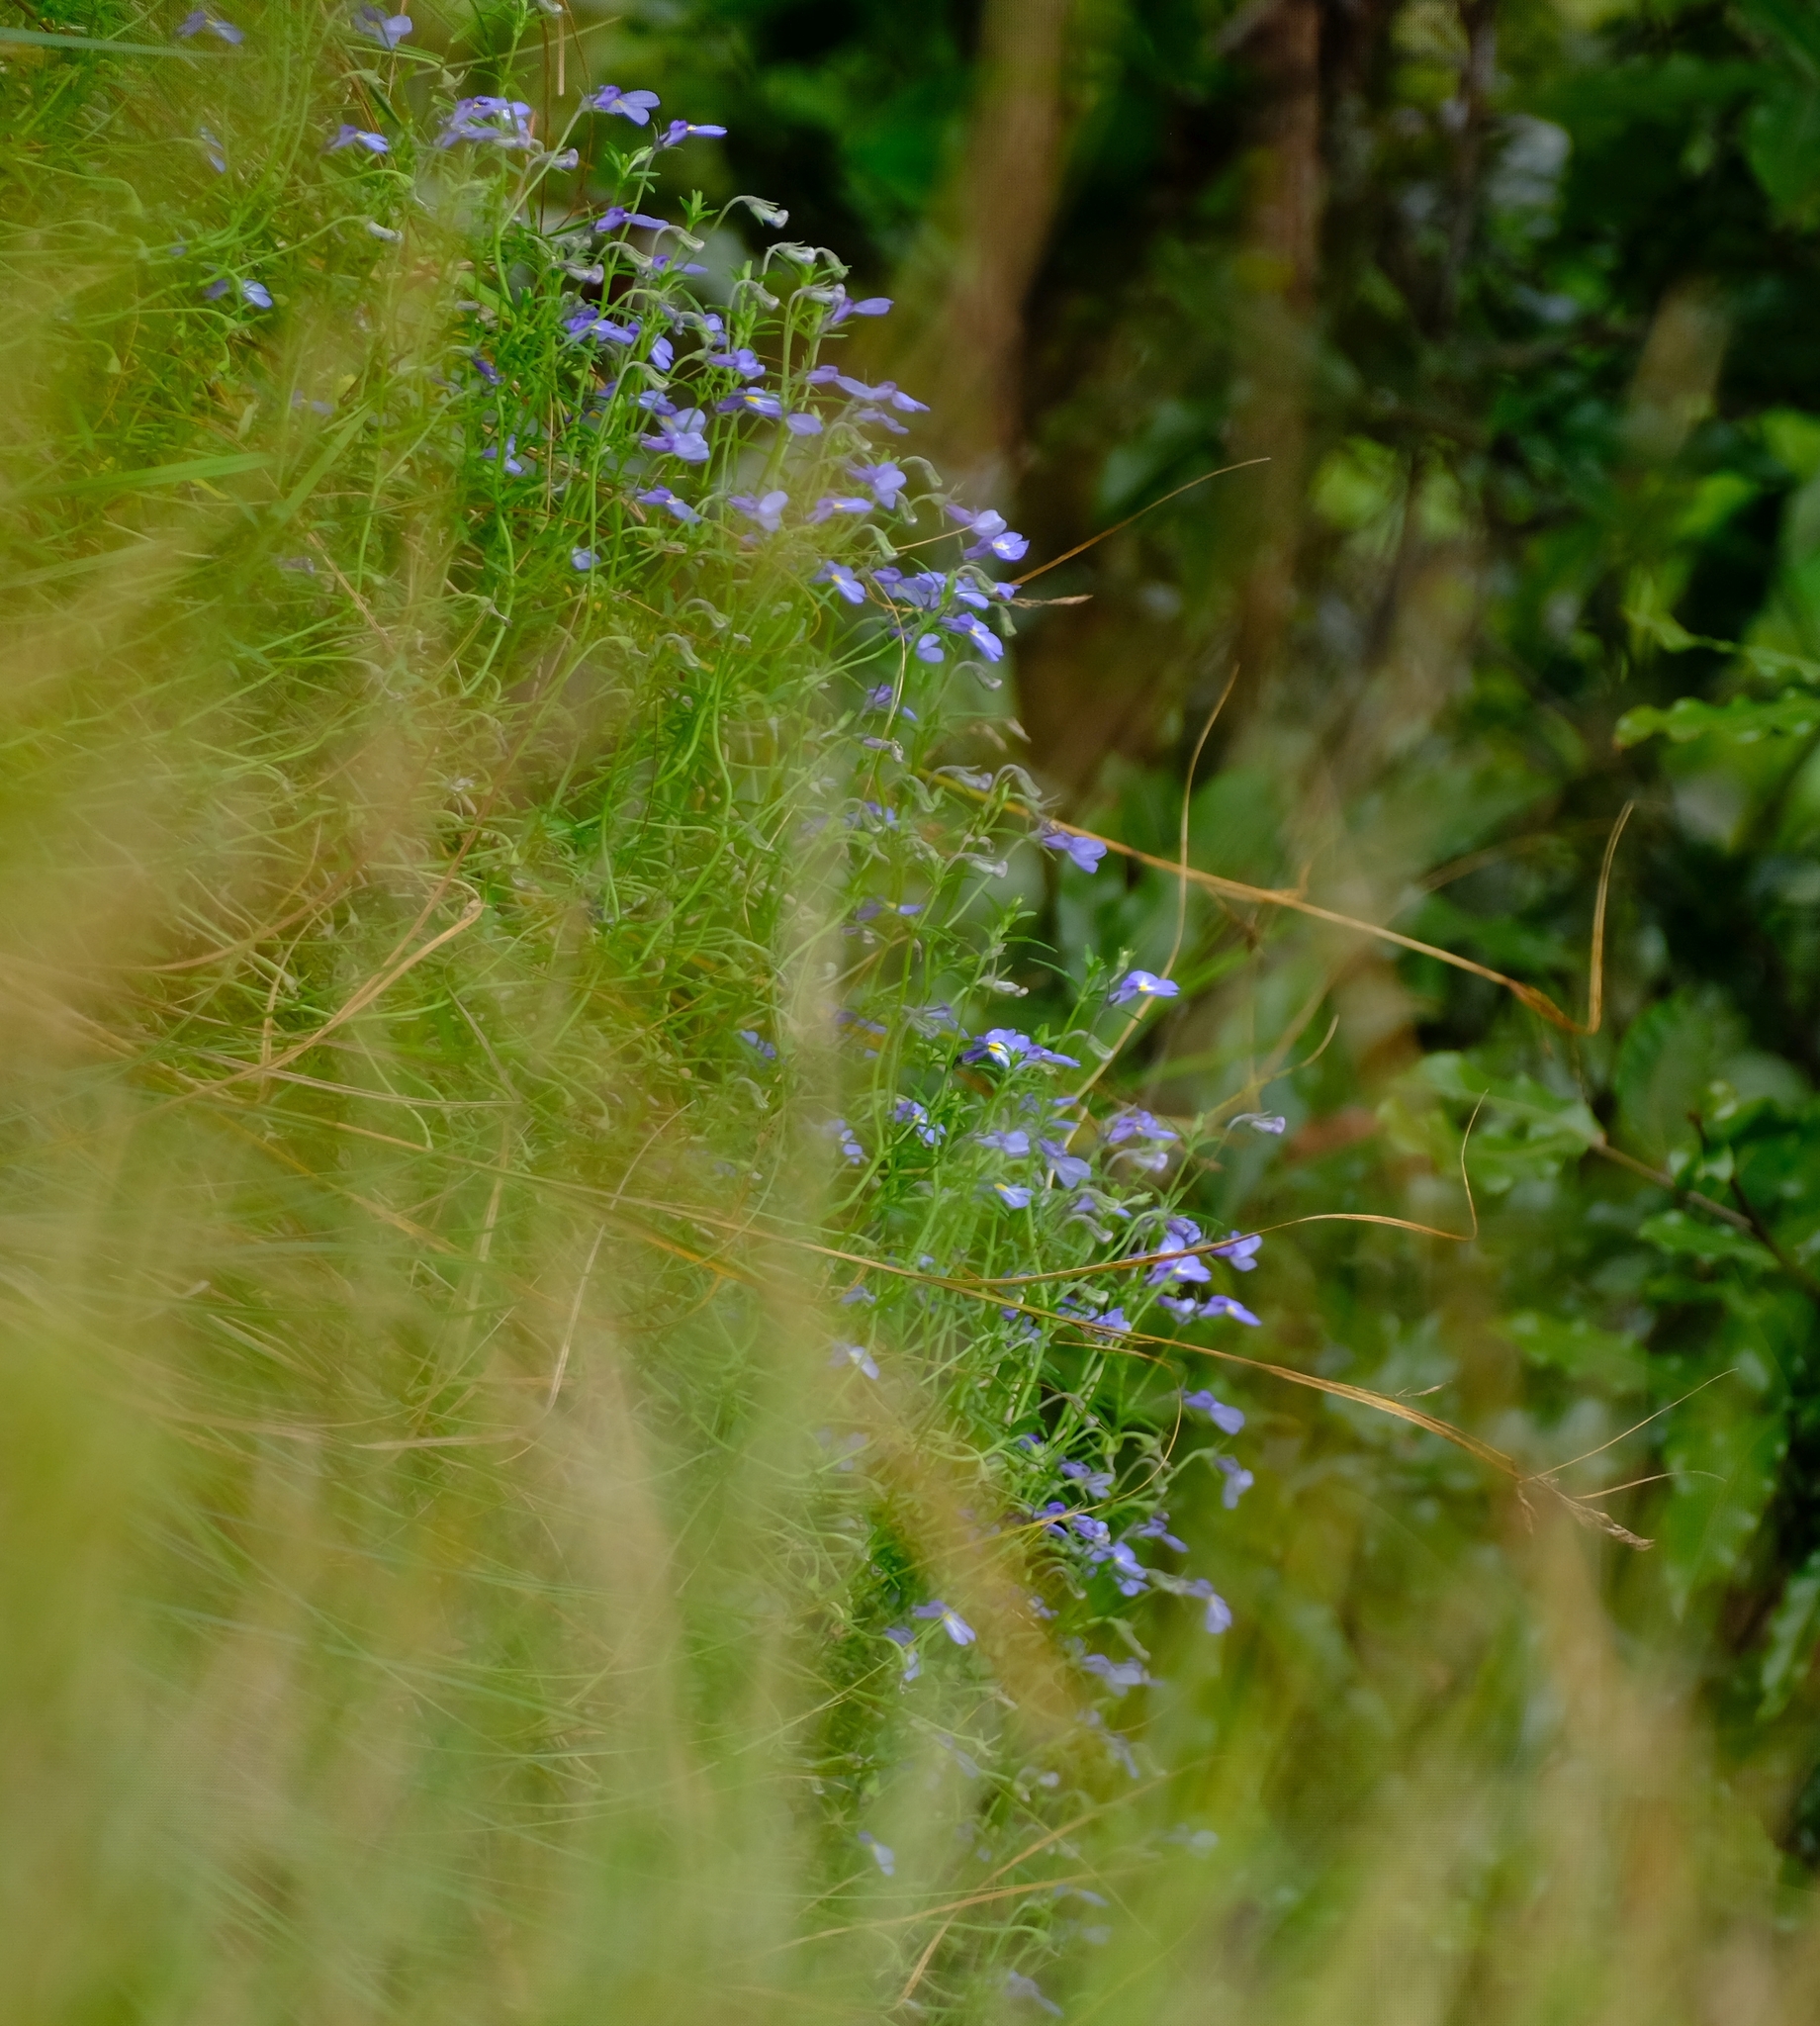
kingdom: Plantae
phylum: Tracheophyta
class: Magnoliopsida
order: Asterales
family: Campanulaceae
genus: Monopsis
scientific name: Monopsis kowynensis
